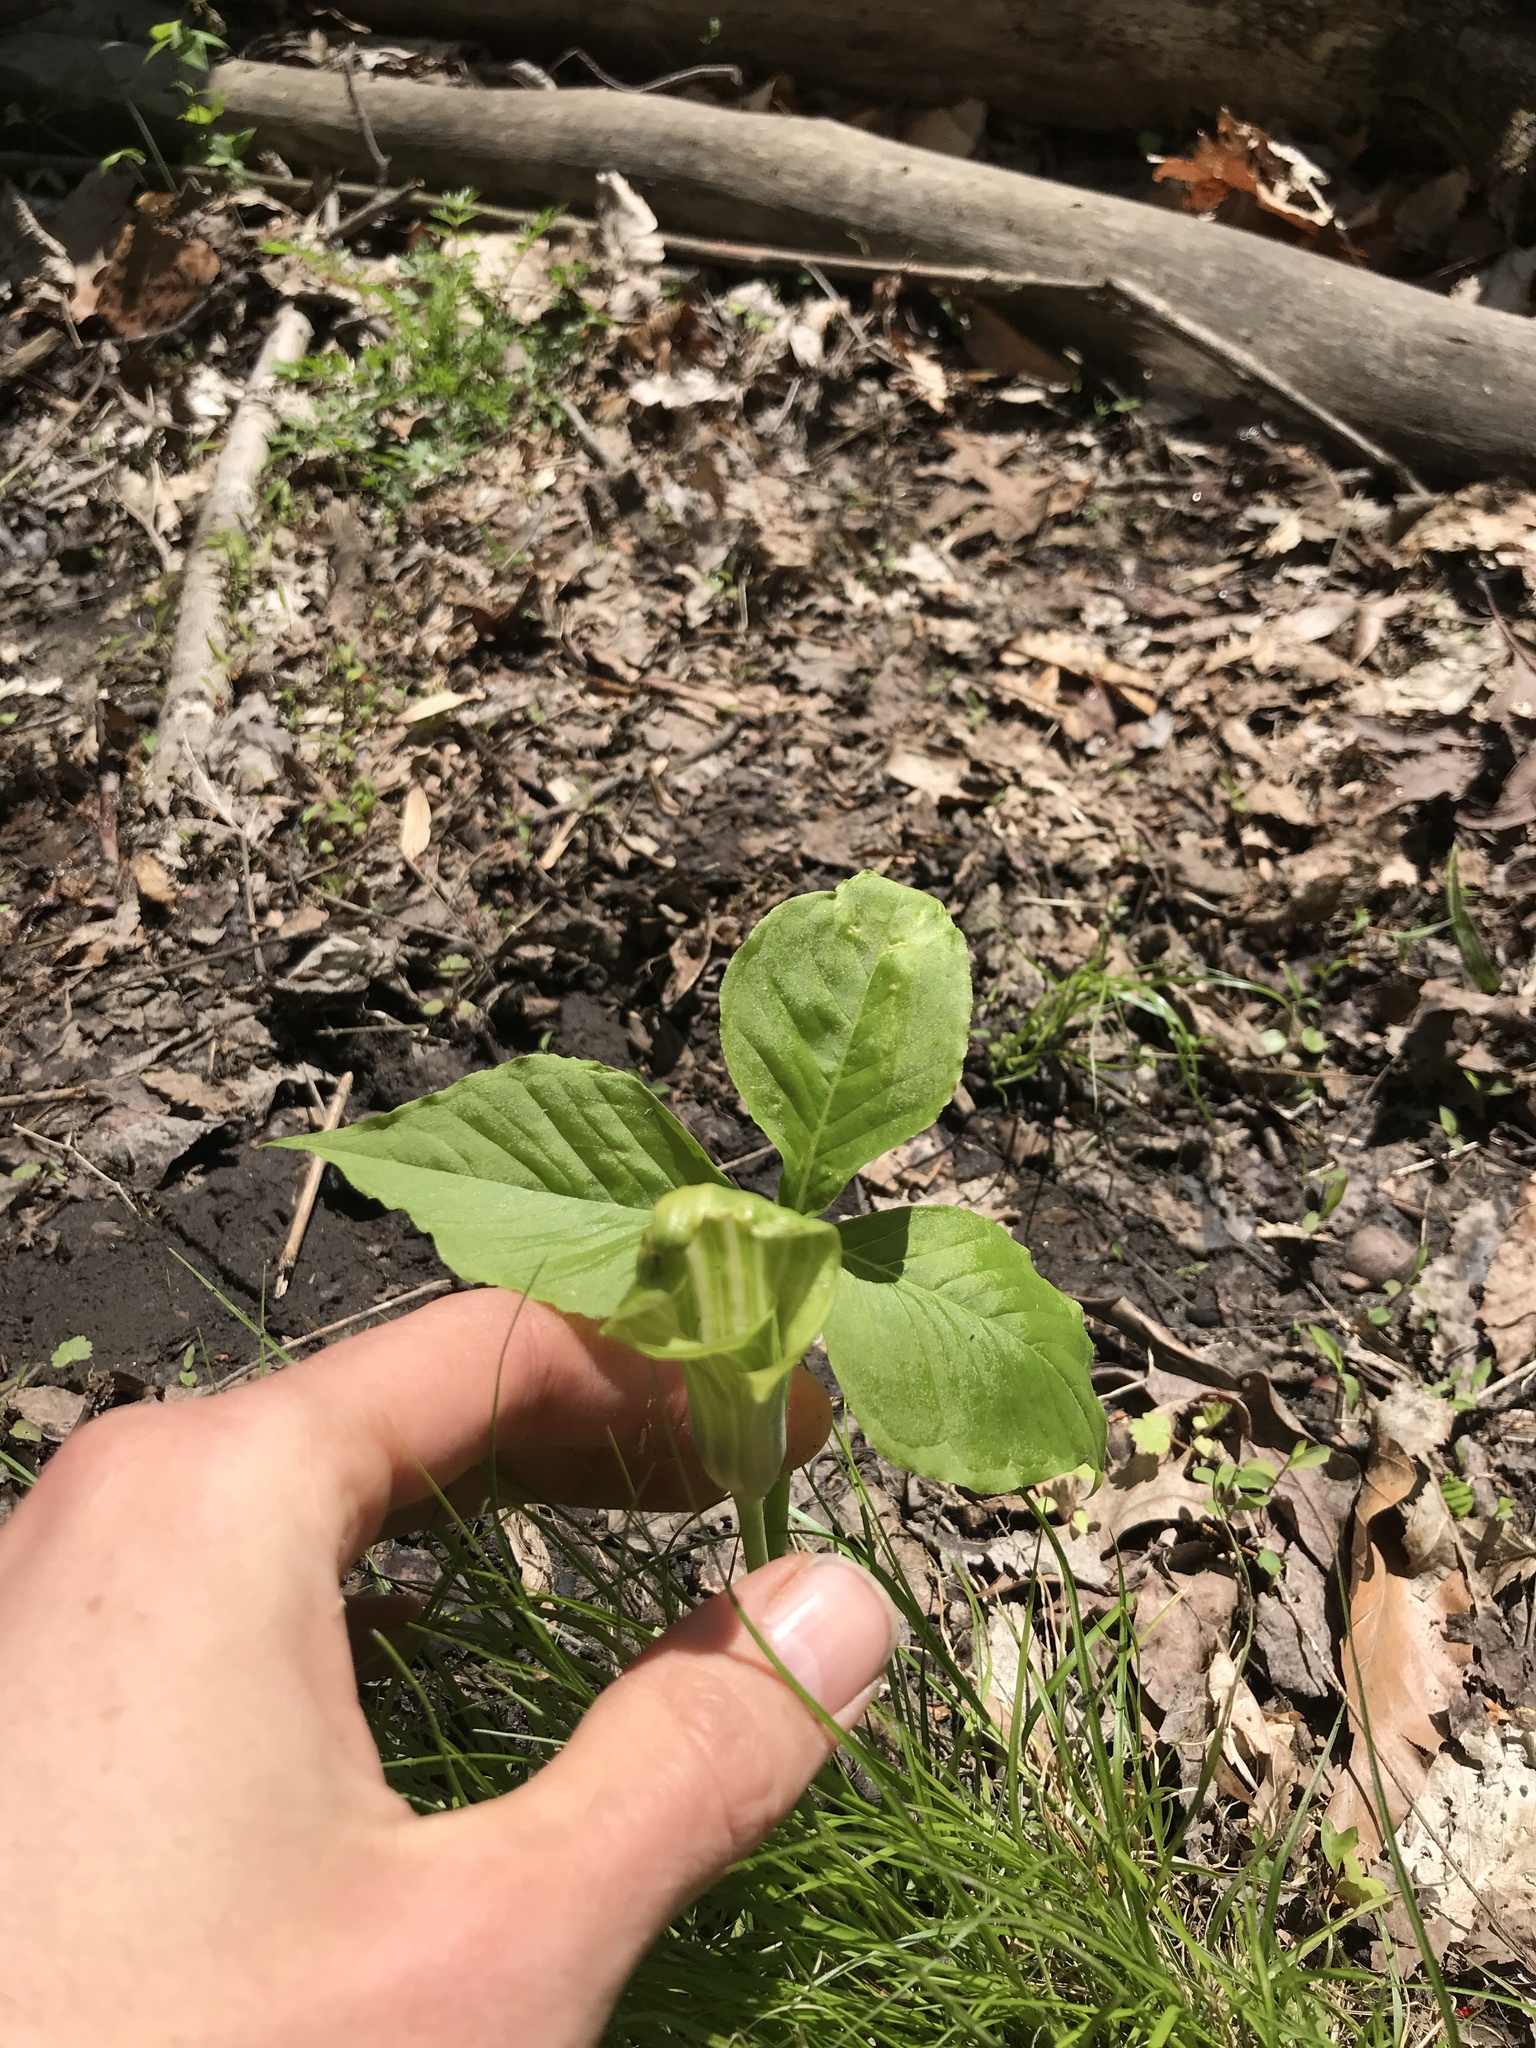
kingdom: Plantae
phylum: Tracheophyta
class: Liliopsida
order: Alismatales
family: Araceae
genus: Arisaema
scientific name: Arisaema triphyllum
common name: Jack-in-the-pulpit
